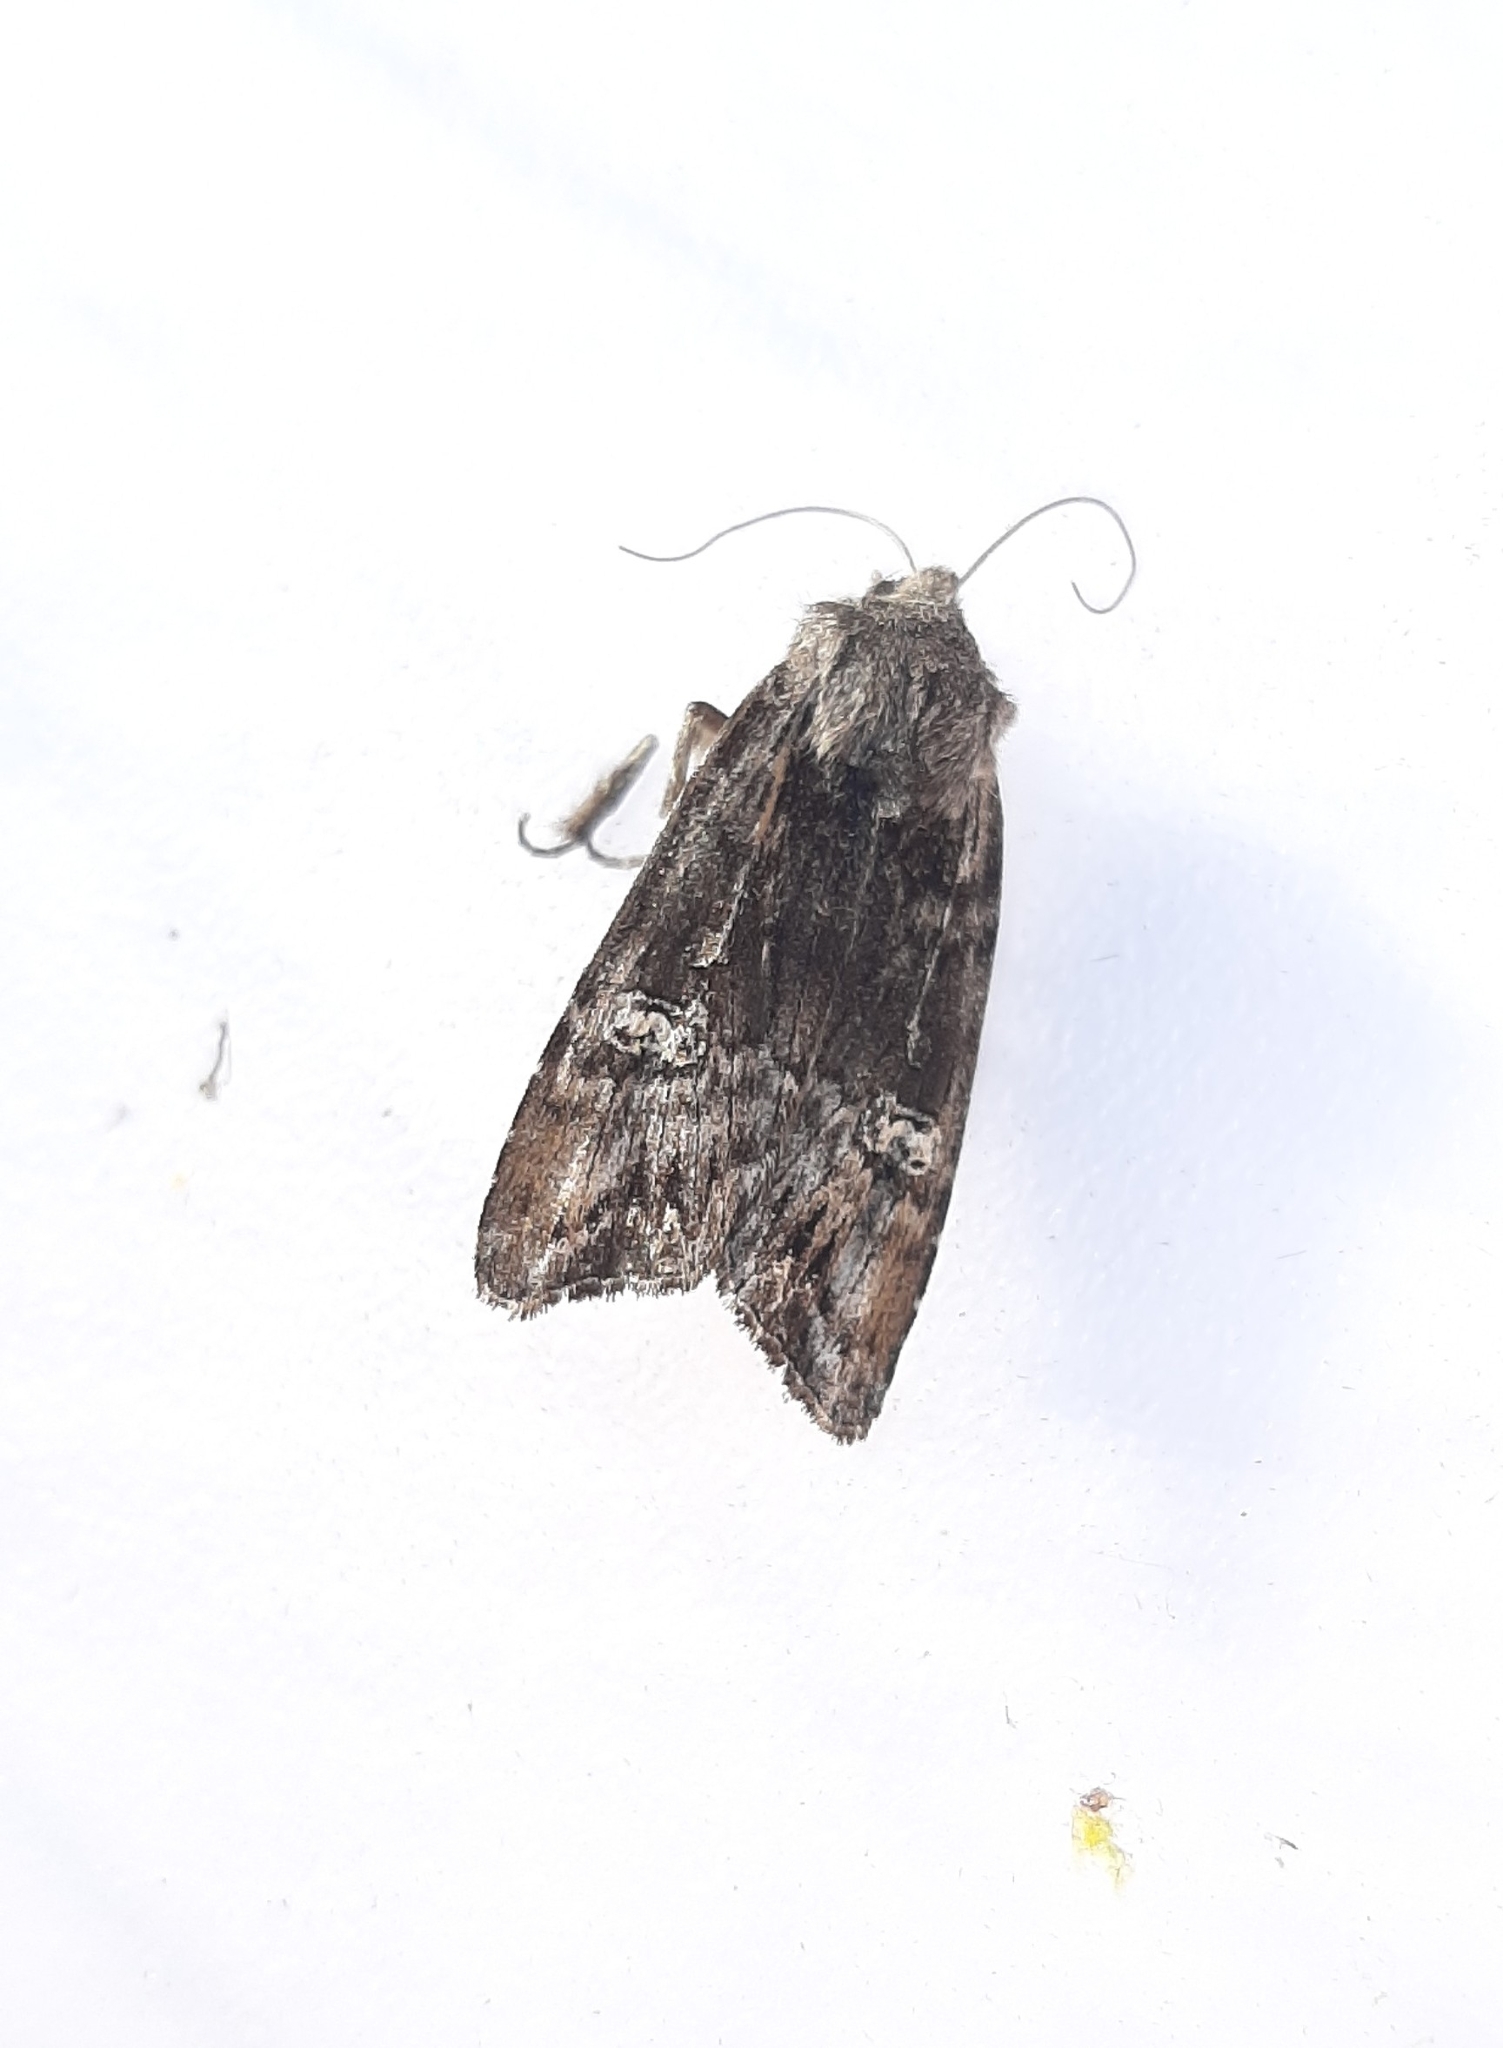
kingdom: Animalia
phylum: Arthropoda
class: Insecta
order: Lepidoptera
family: Noctuidae
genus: Xylena
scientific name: Xylena solidaginis
